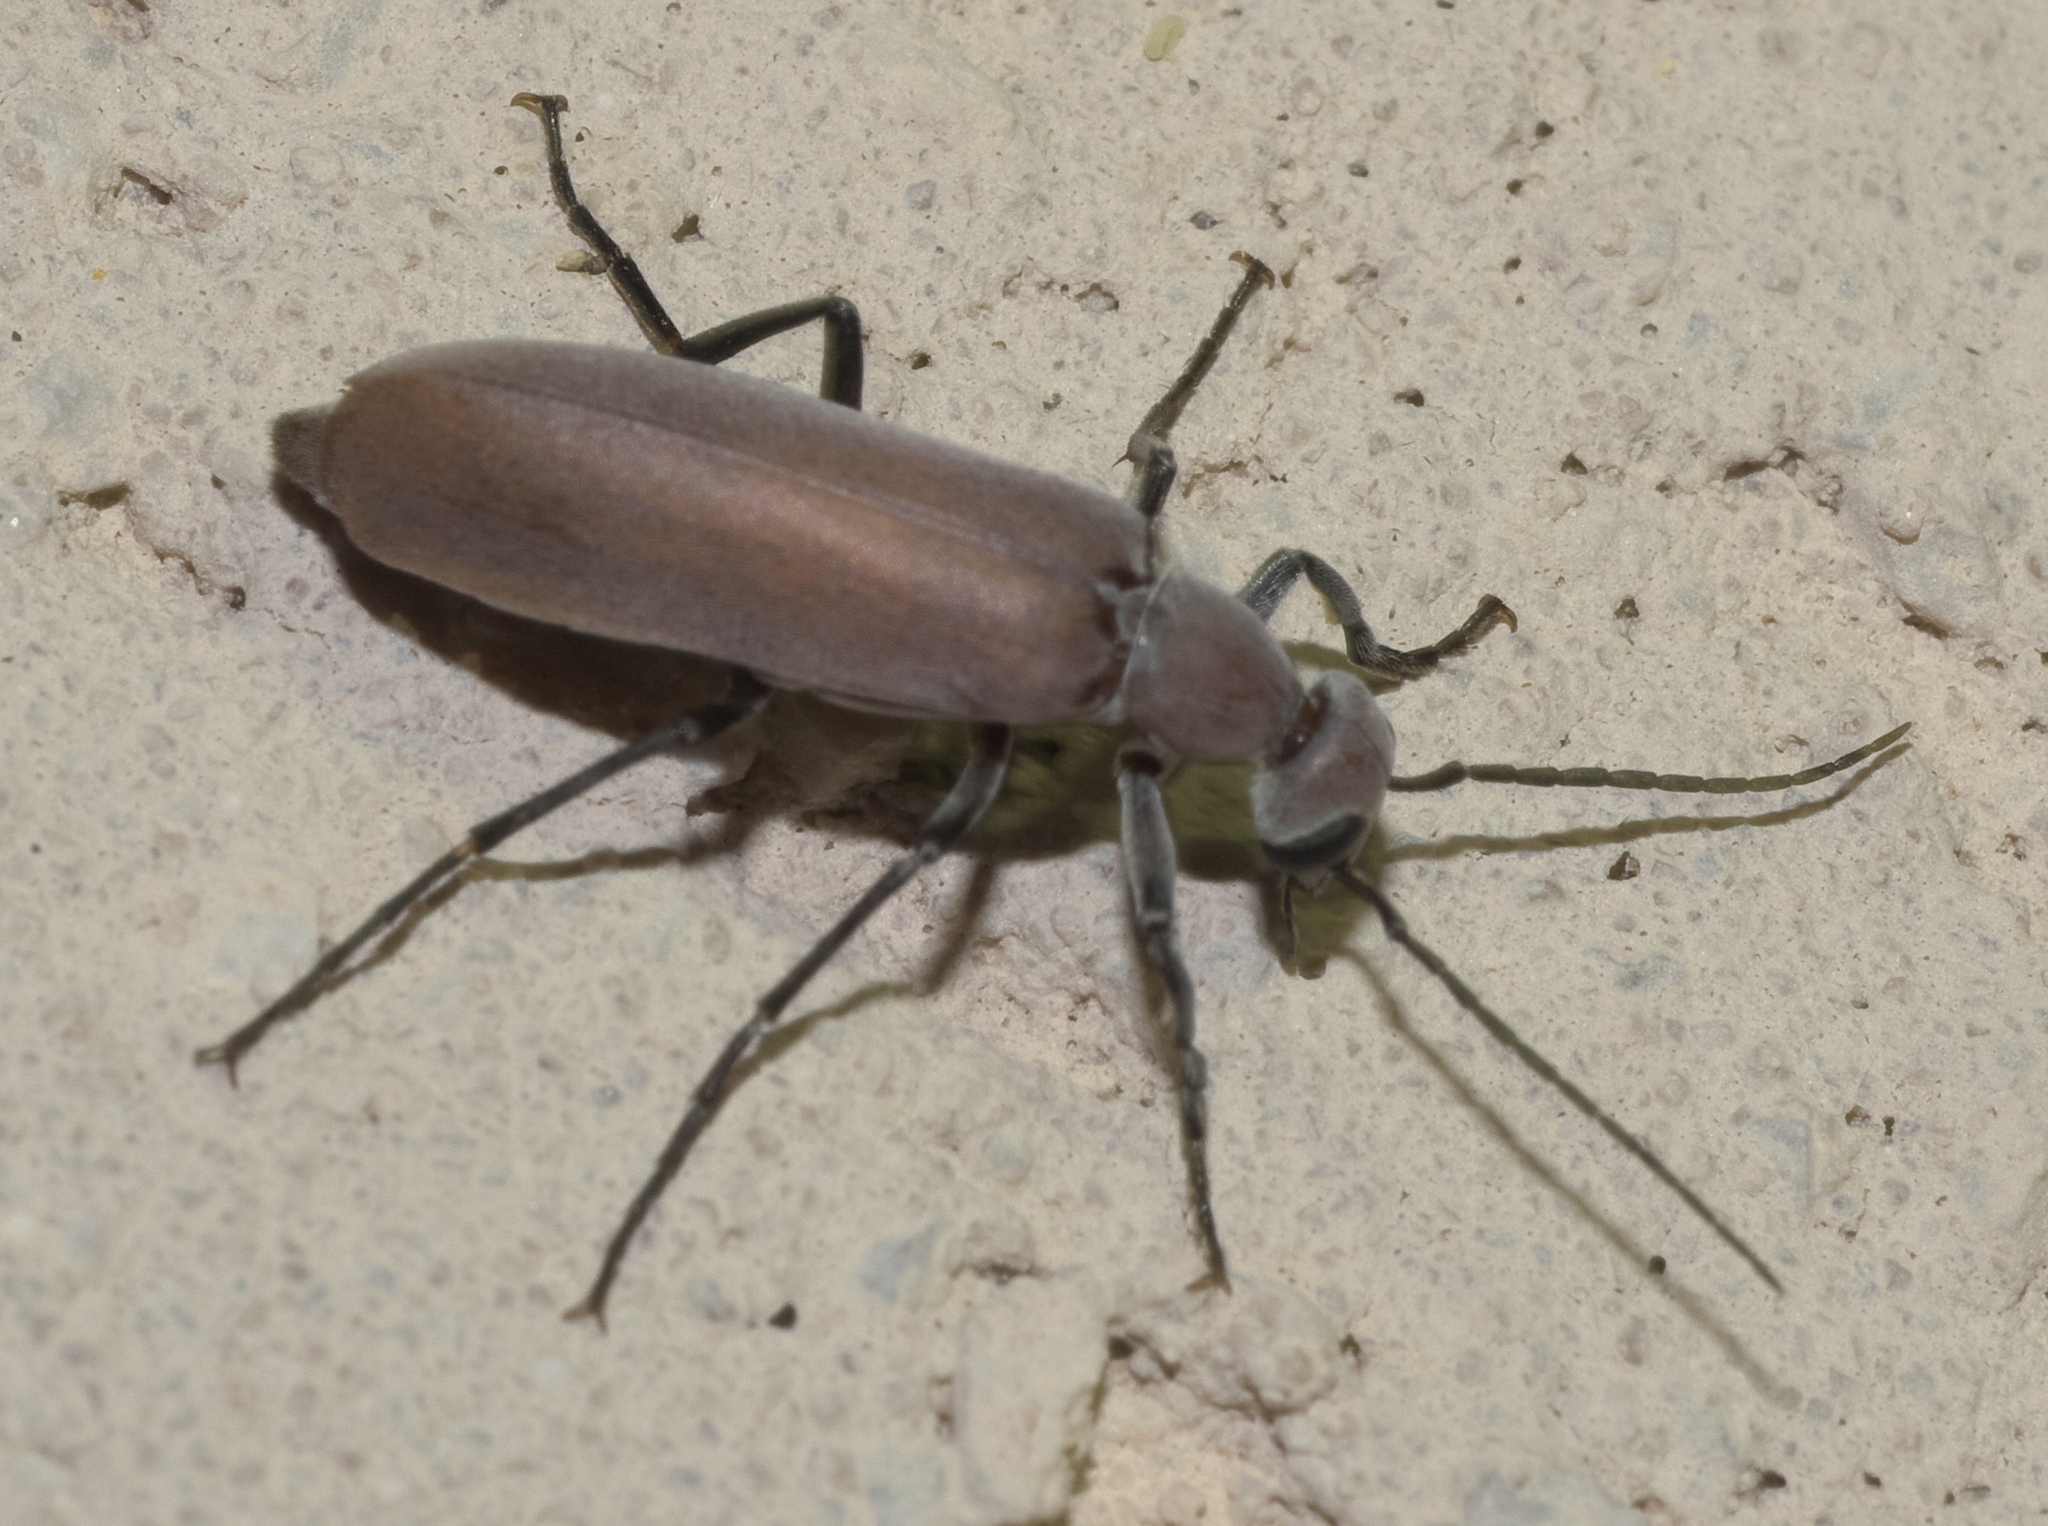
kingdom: Animalia
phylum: Arthropoda
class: Insecta
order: Coleoptera
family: Meloidae
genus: Epicauta
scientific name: Epicauta lauta
